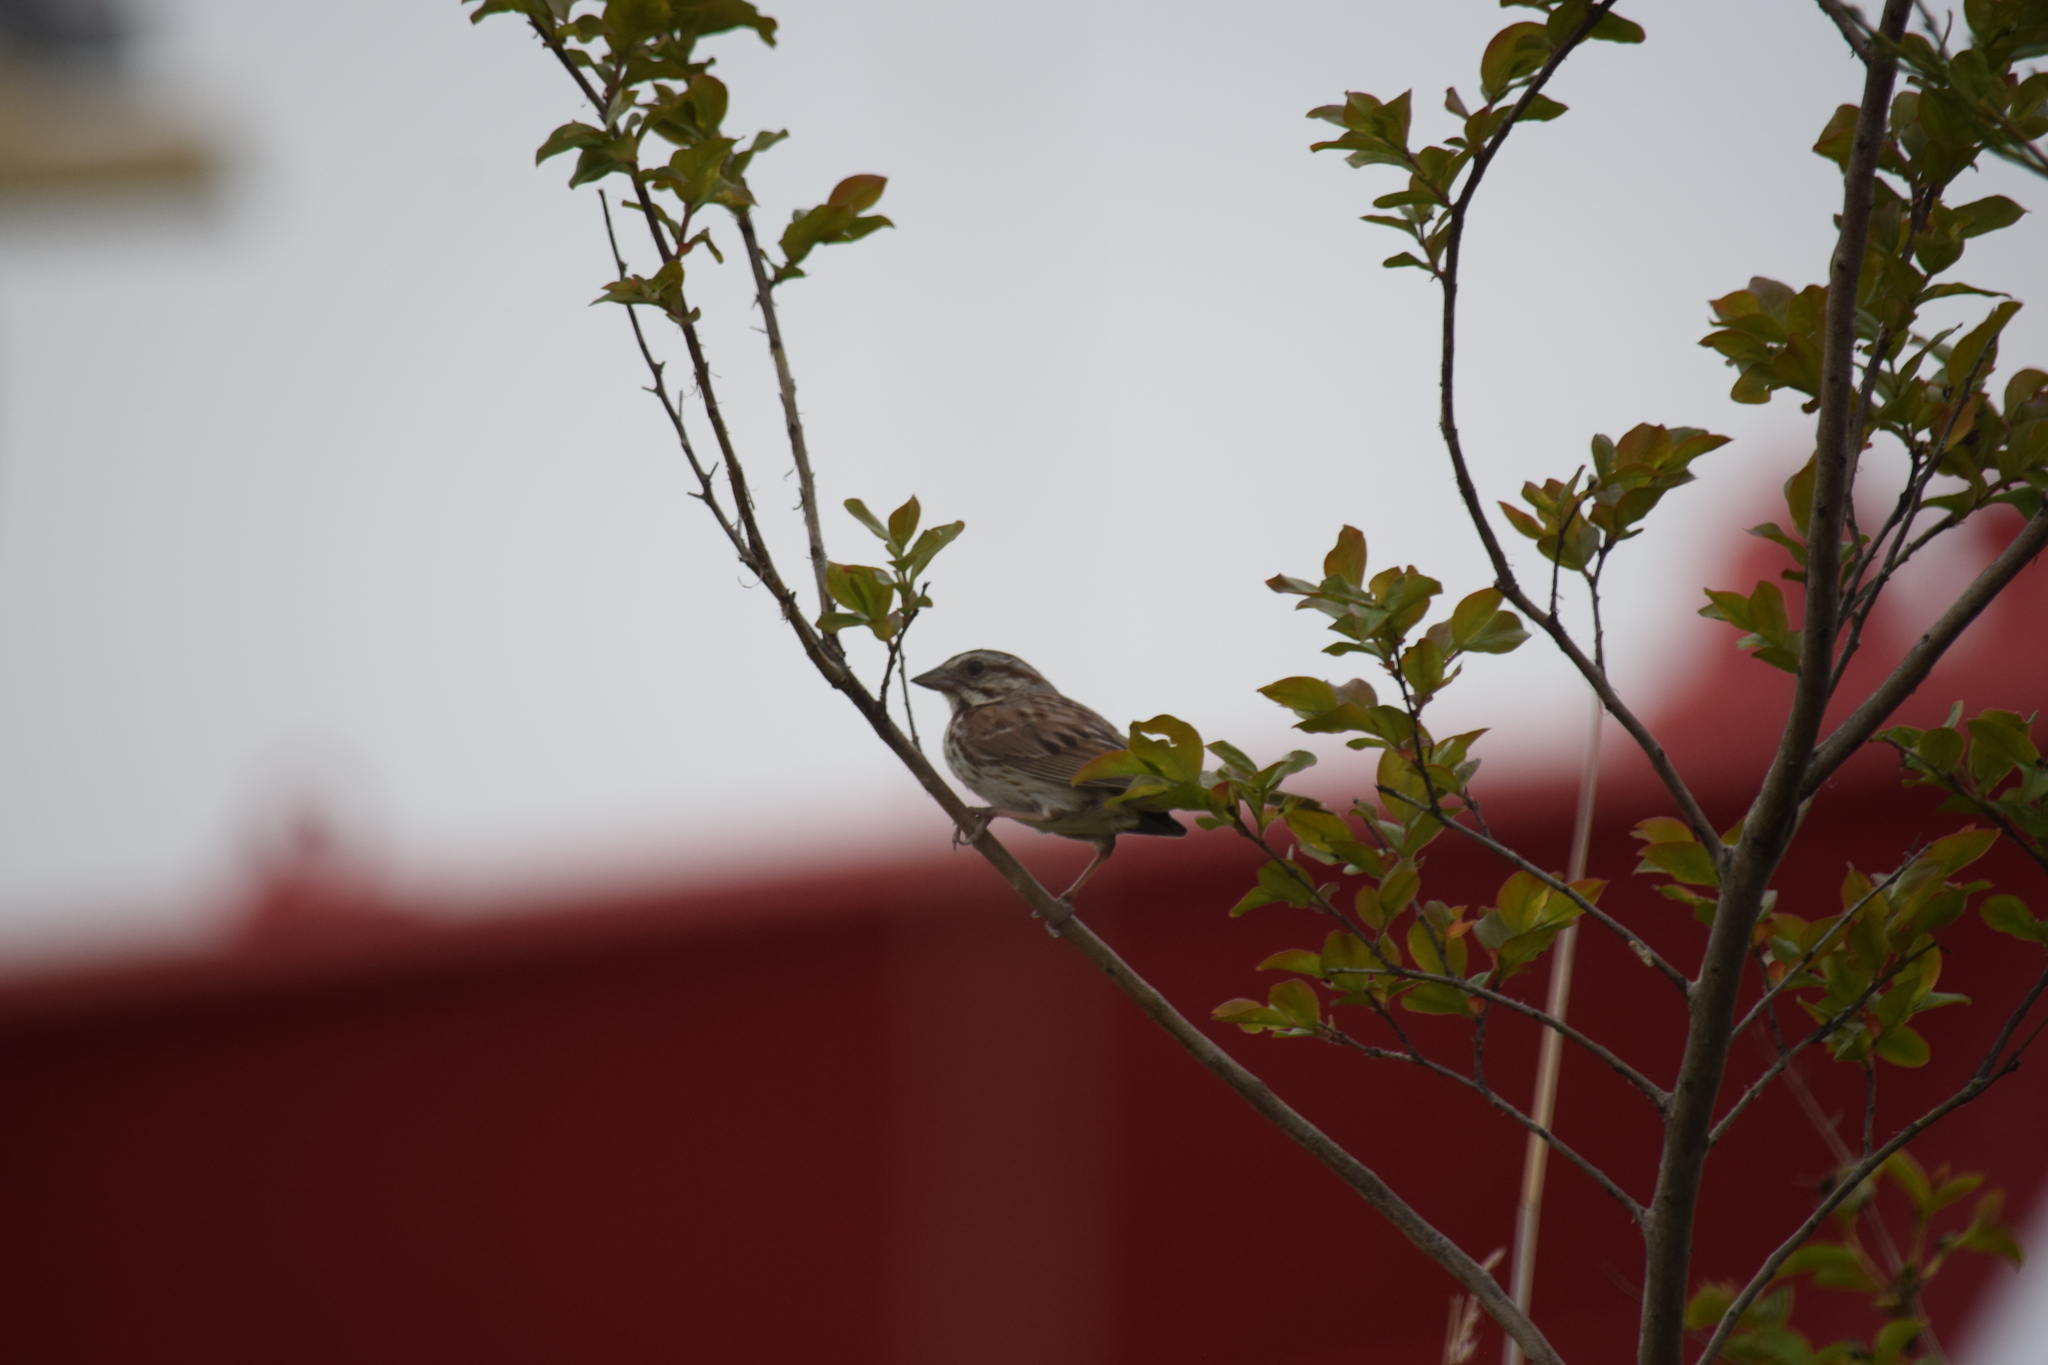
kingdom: Animalia
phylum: Chordata
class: Aves
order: Passeriformes
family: Passerellidae
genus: Melospiza
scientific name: Melospiza melodia
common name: Song sparrow
